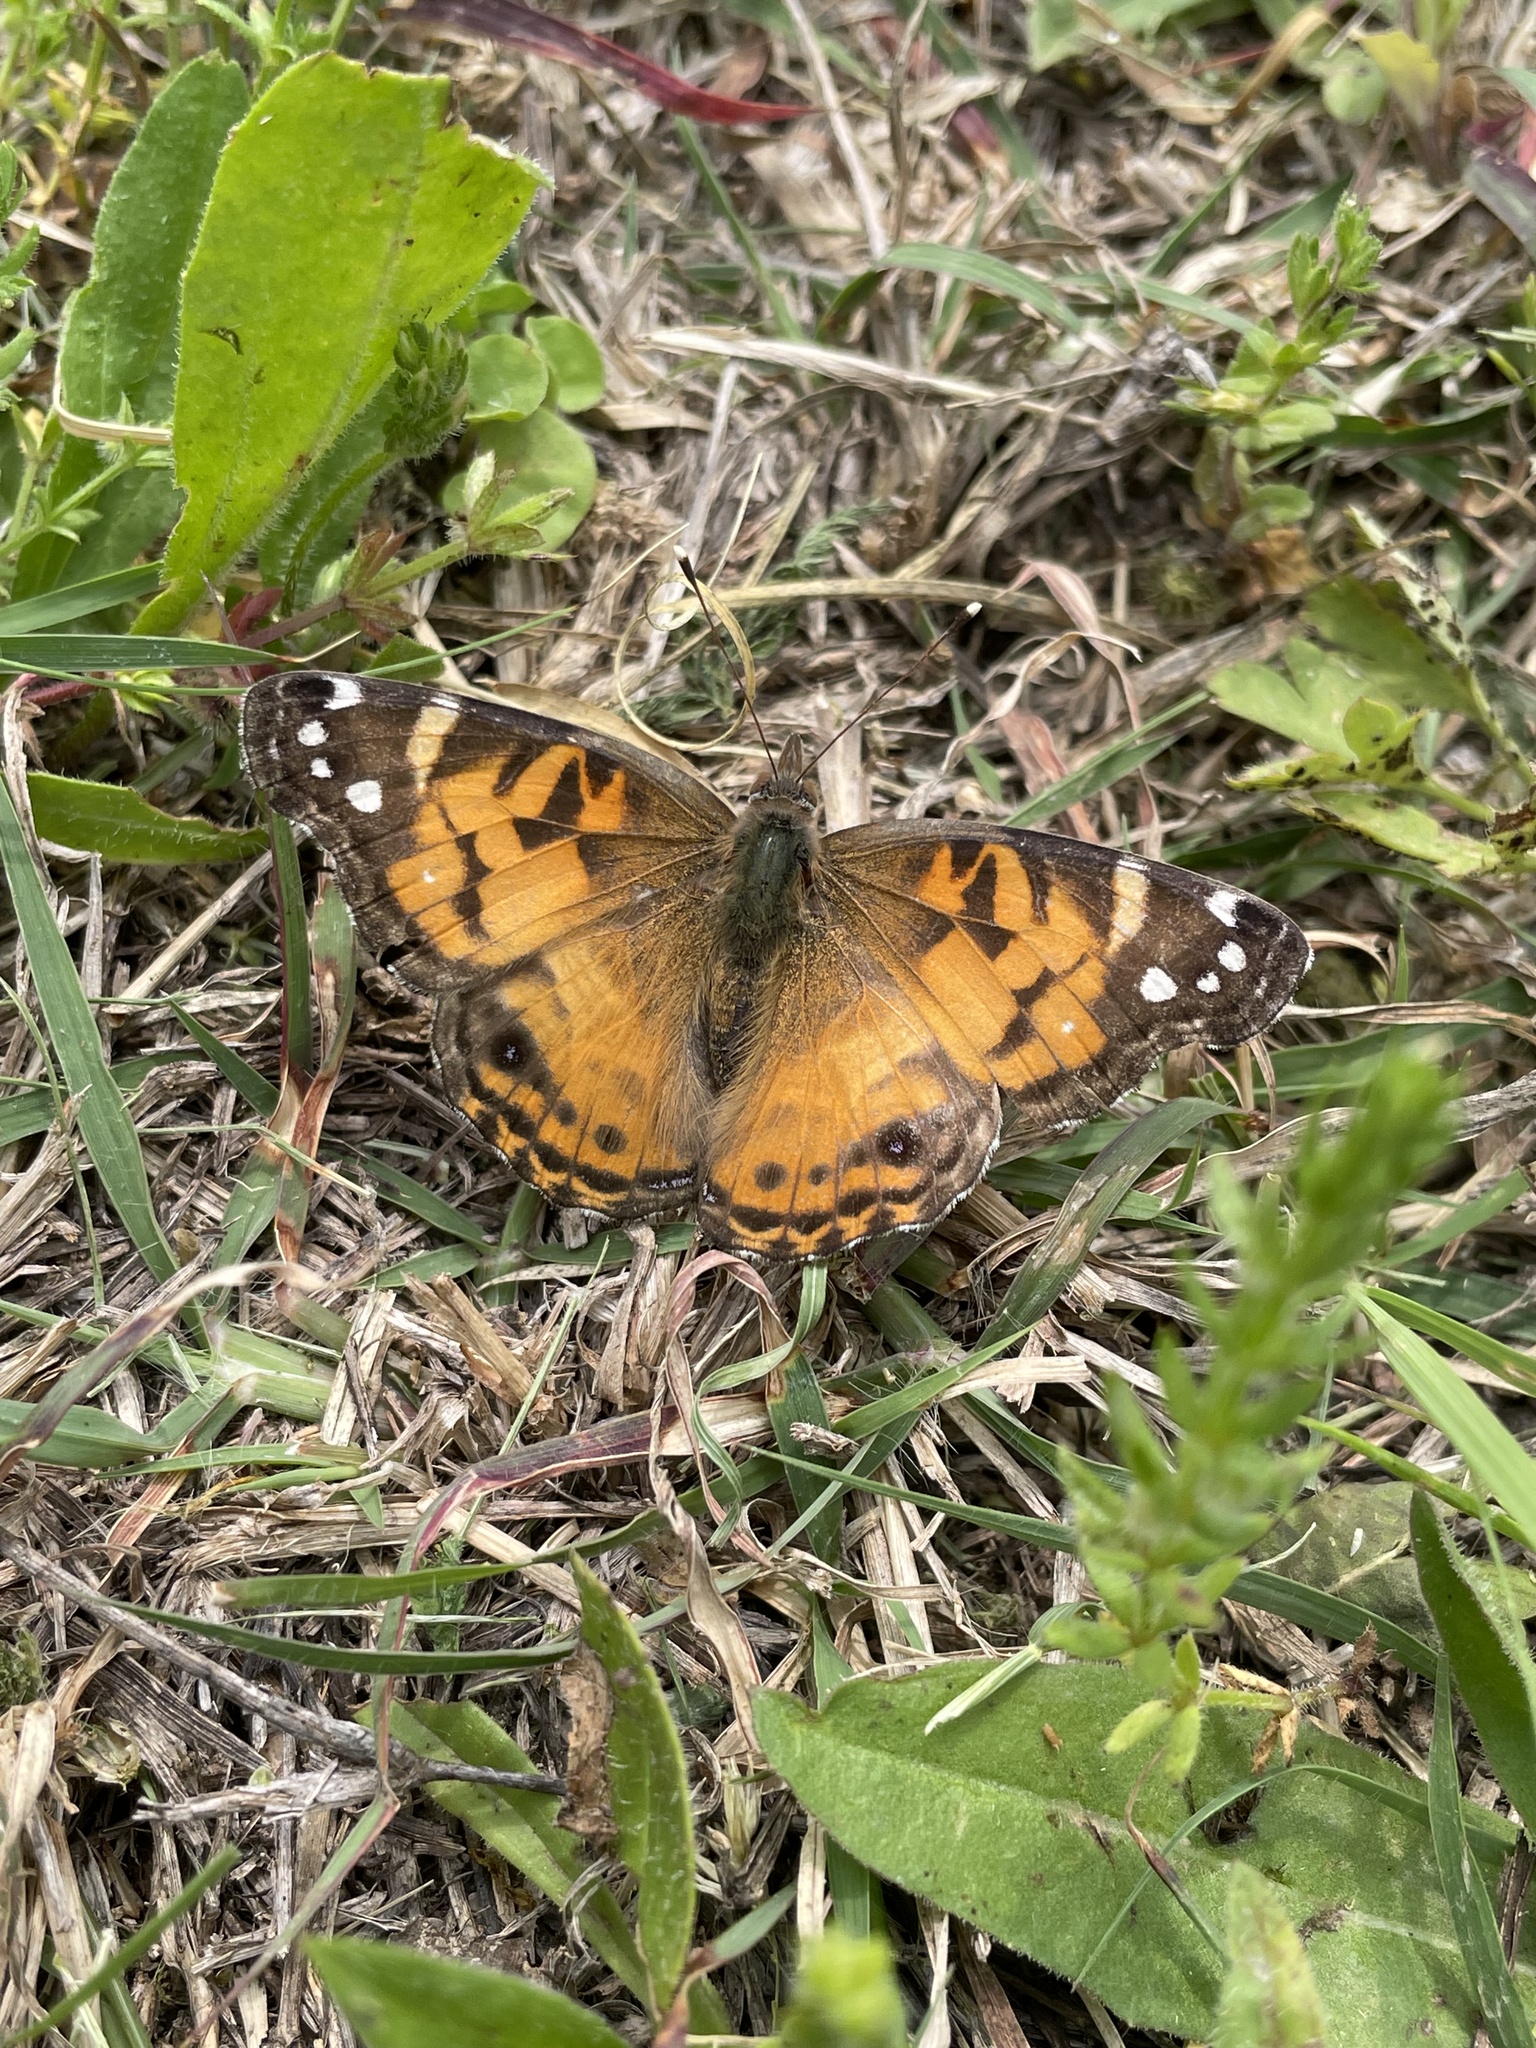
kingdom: Animalia
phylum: Arthropoda
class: Insecta
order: Lepidoptera
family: Nymphalidae
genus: Vanessa
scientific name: Vanessa virginiensis
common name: American lady
